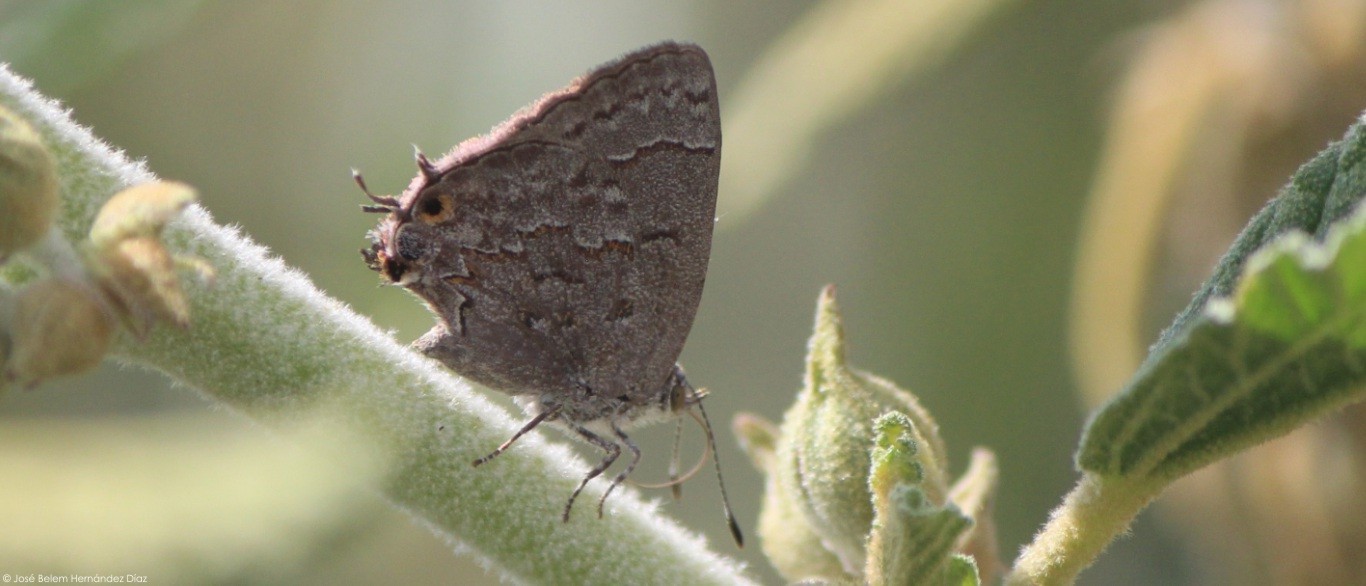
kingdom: Animalia
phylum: Arthropoda
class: Insecta
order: Lepidoptera
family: Lycaenidae
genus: Ministrymon
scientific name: Ministrymon leda
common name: Leda ministreak
